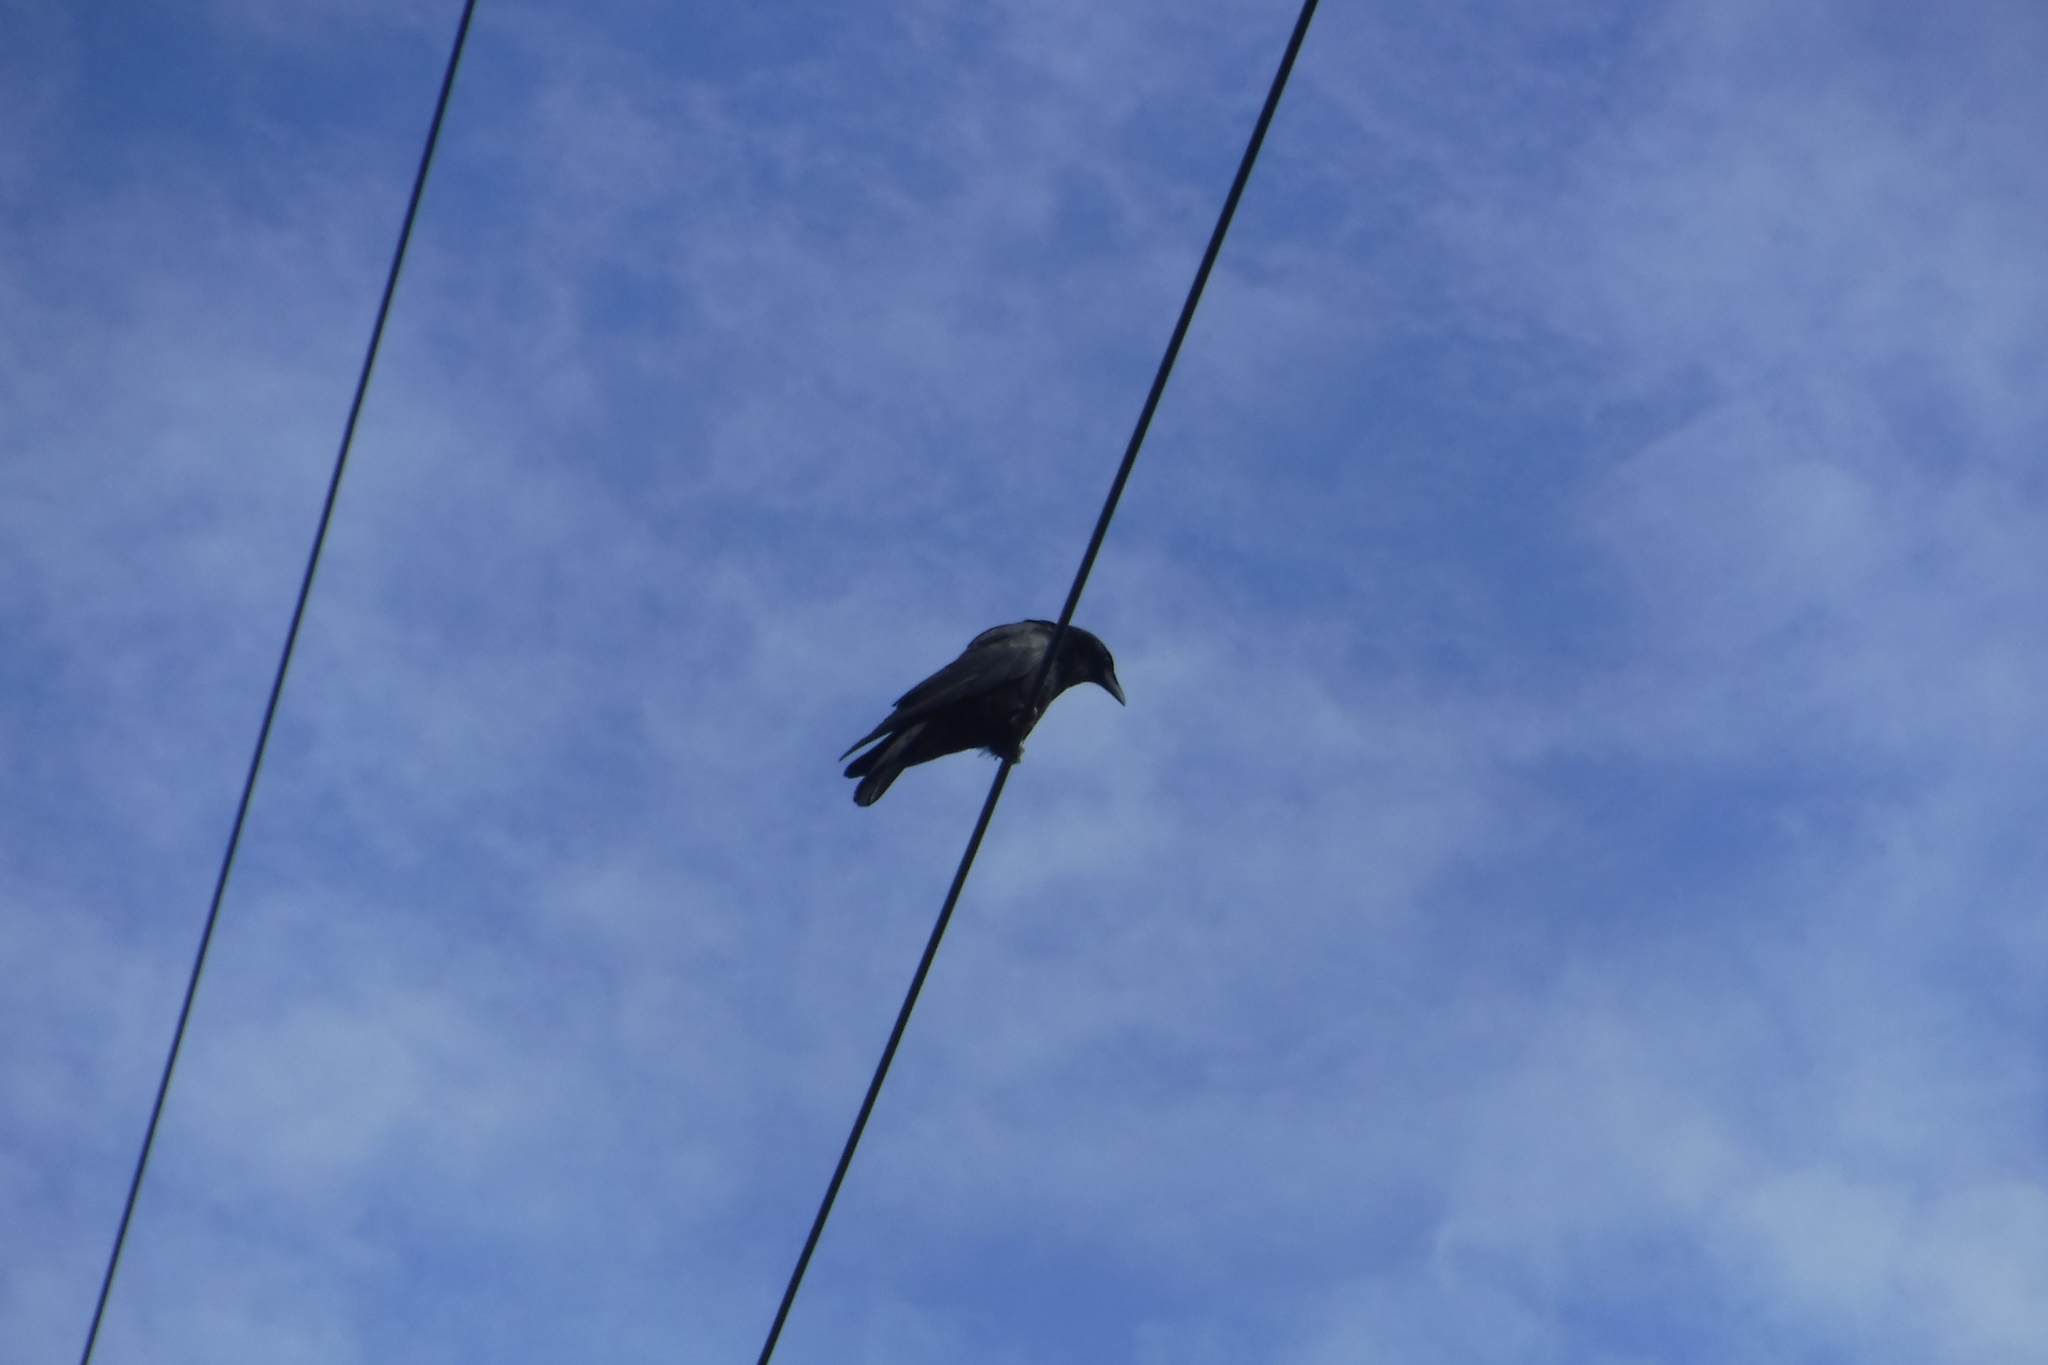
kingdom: Animalia
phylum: Chordata
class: Aves
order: Passeriformes
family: Corvidae
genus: Corvus
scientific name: Corvus corax
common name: Common raven
